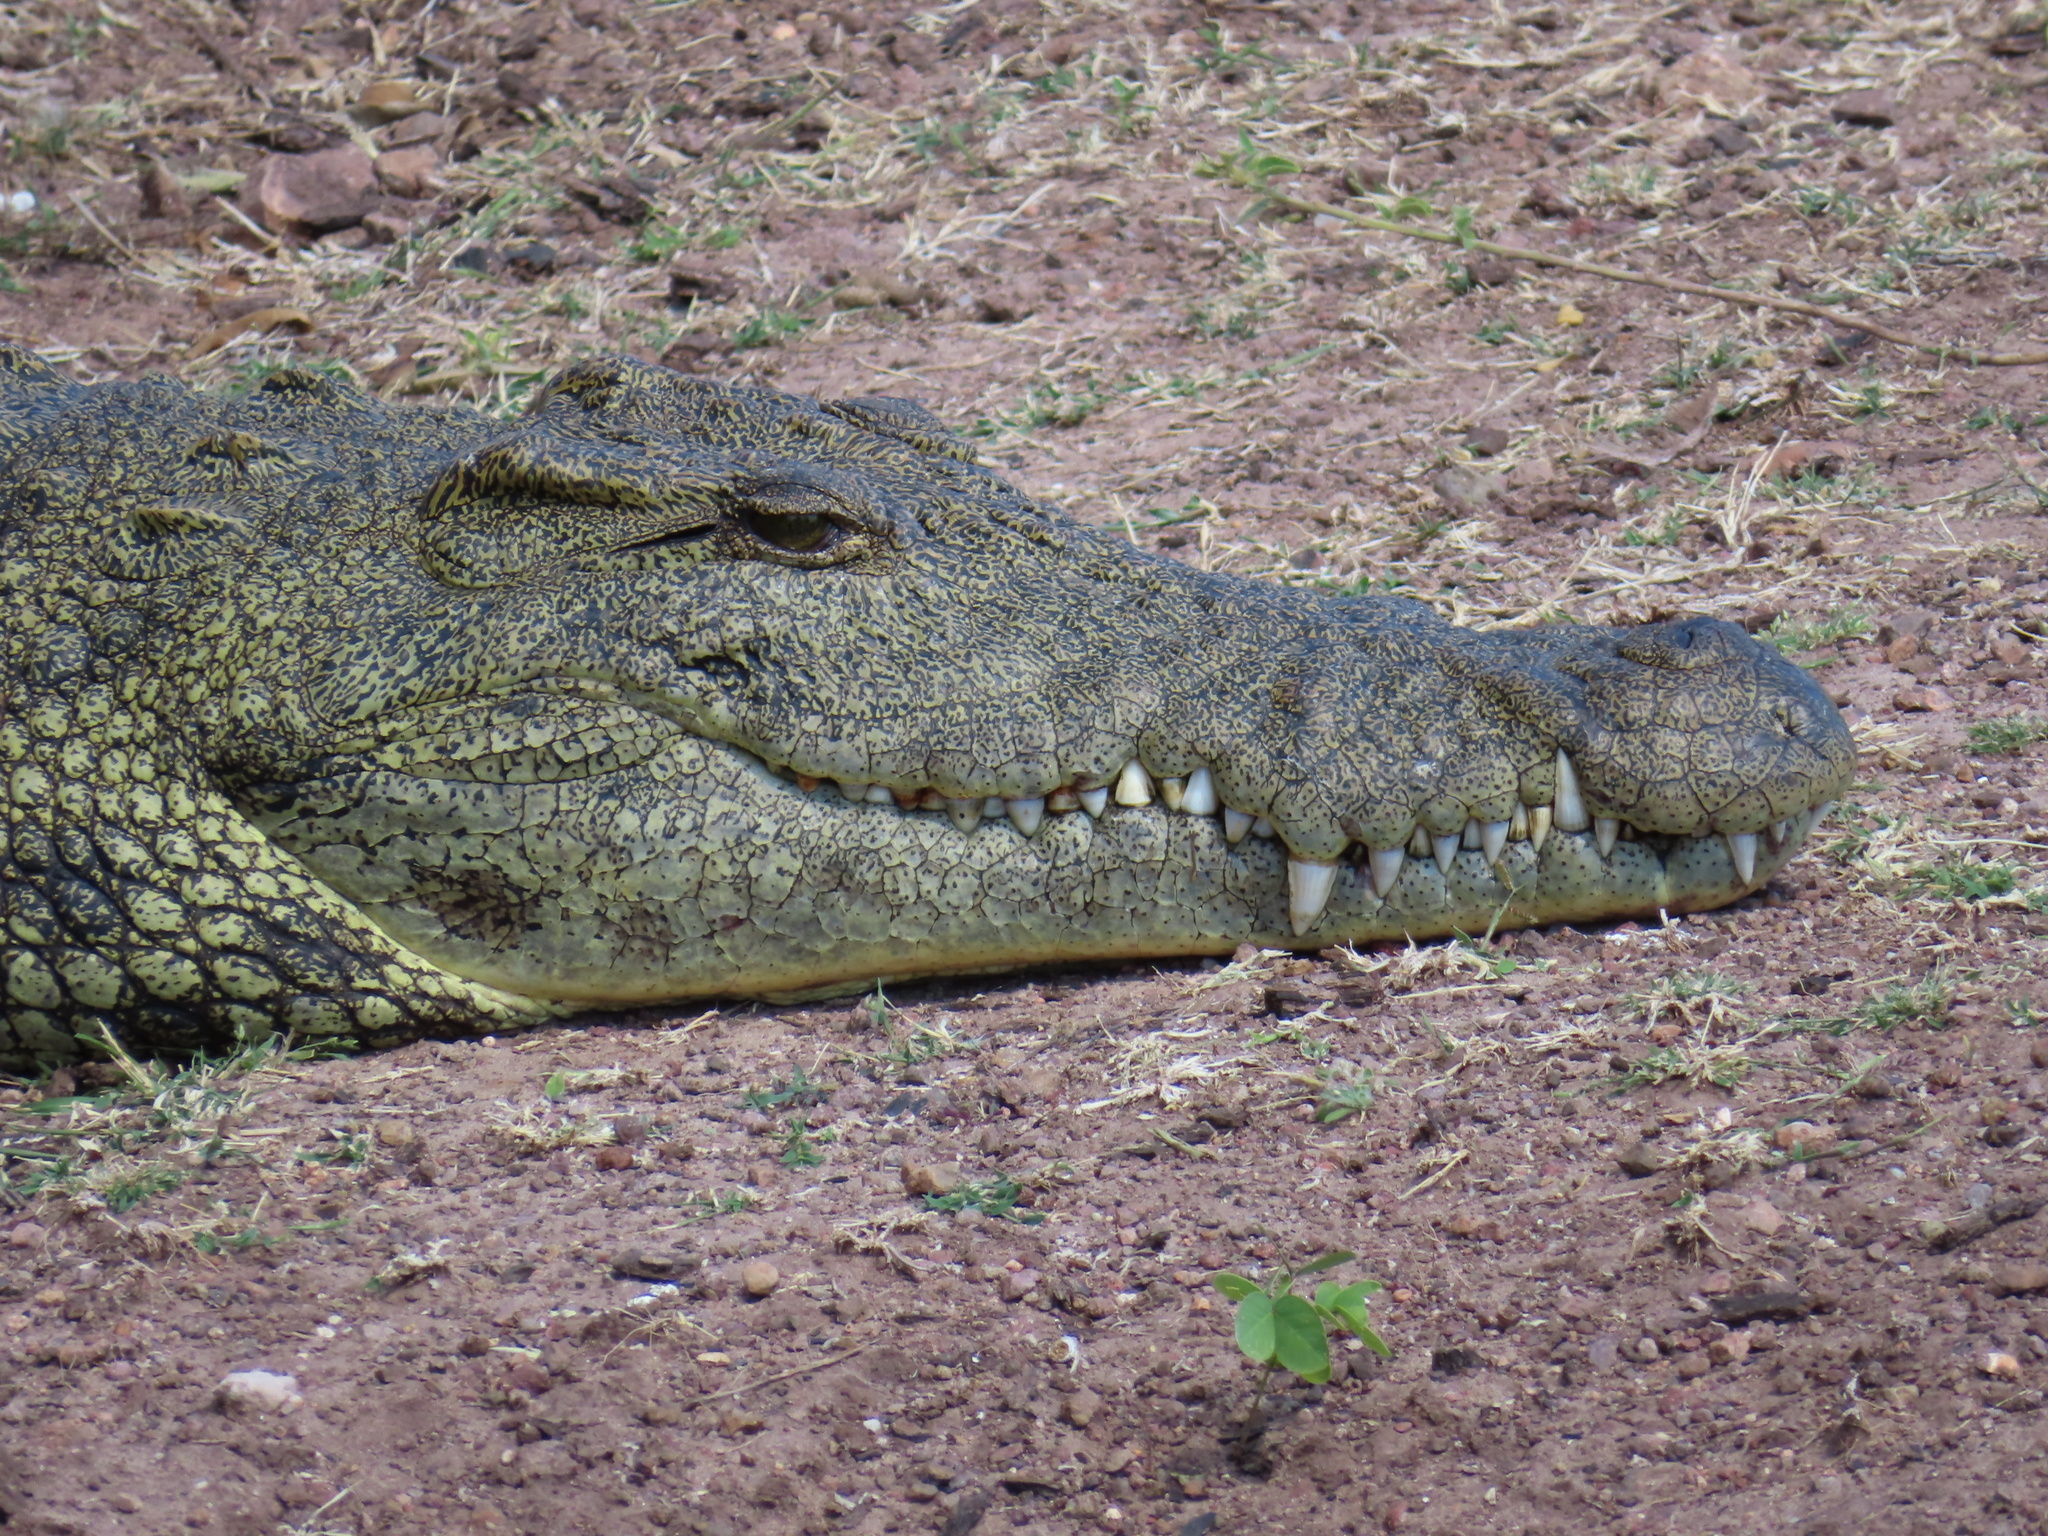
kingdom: Animalia
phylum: Chordata
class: Crocodylia
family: Crocodylidae
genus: Crocodylus
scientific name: Crocodylus niloticus
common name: Nile crocodile
